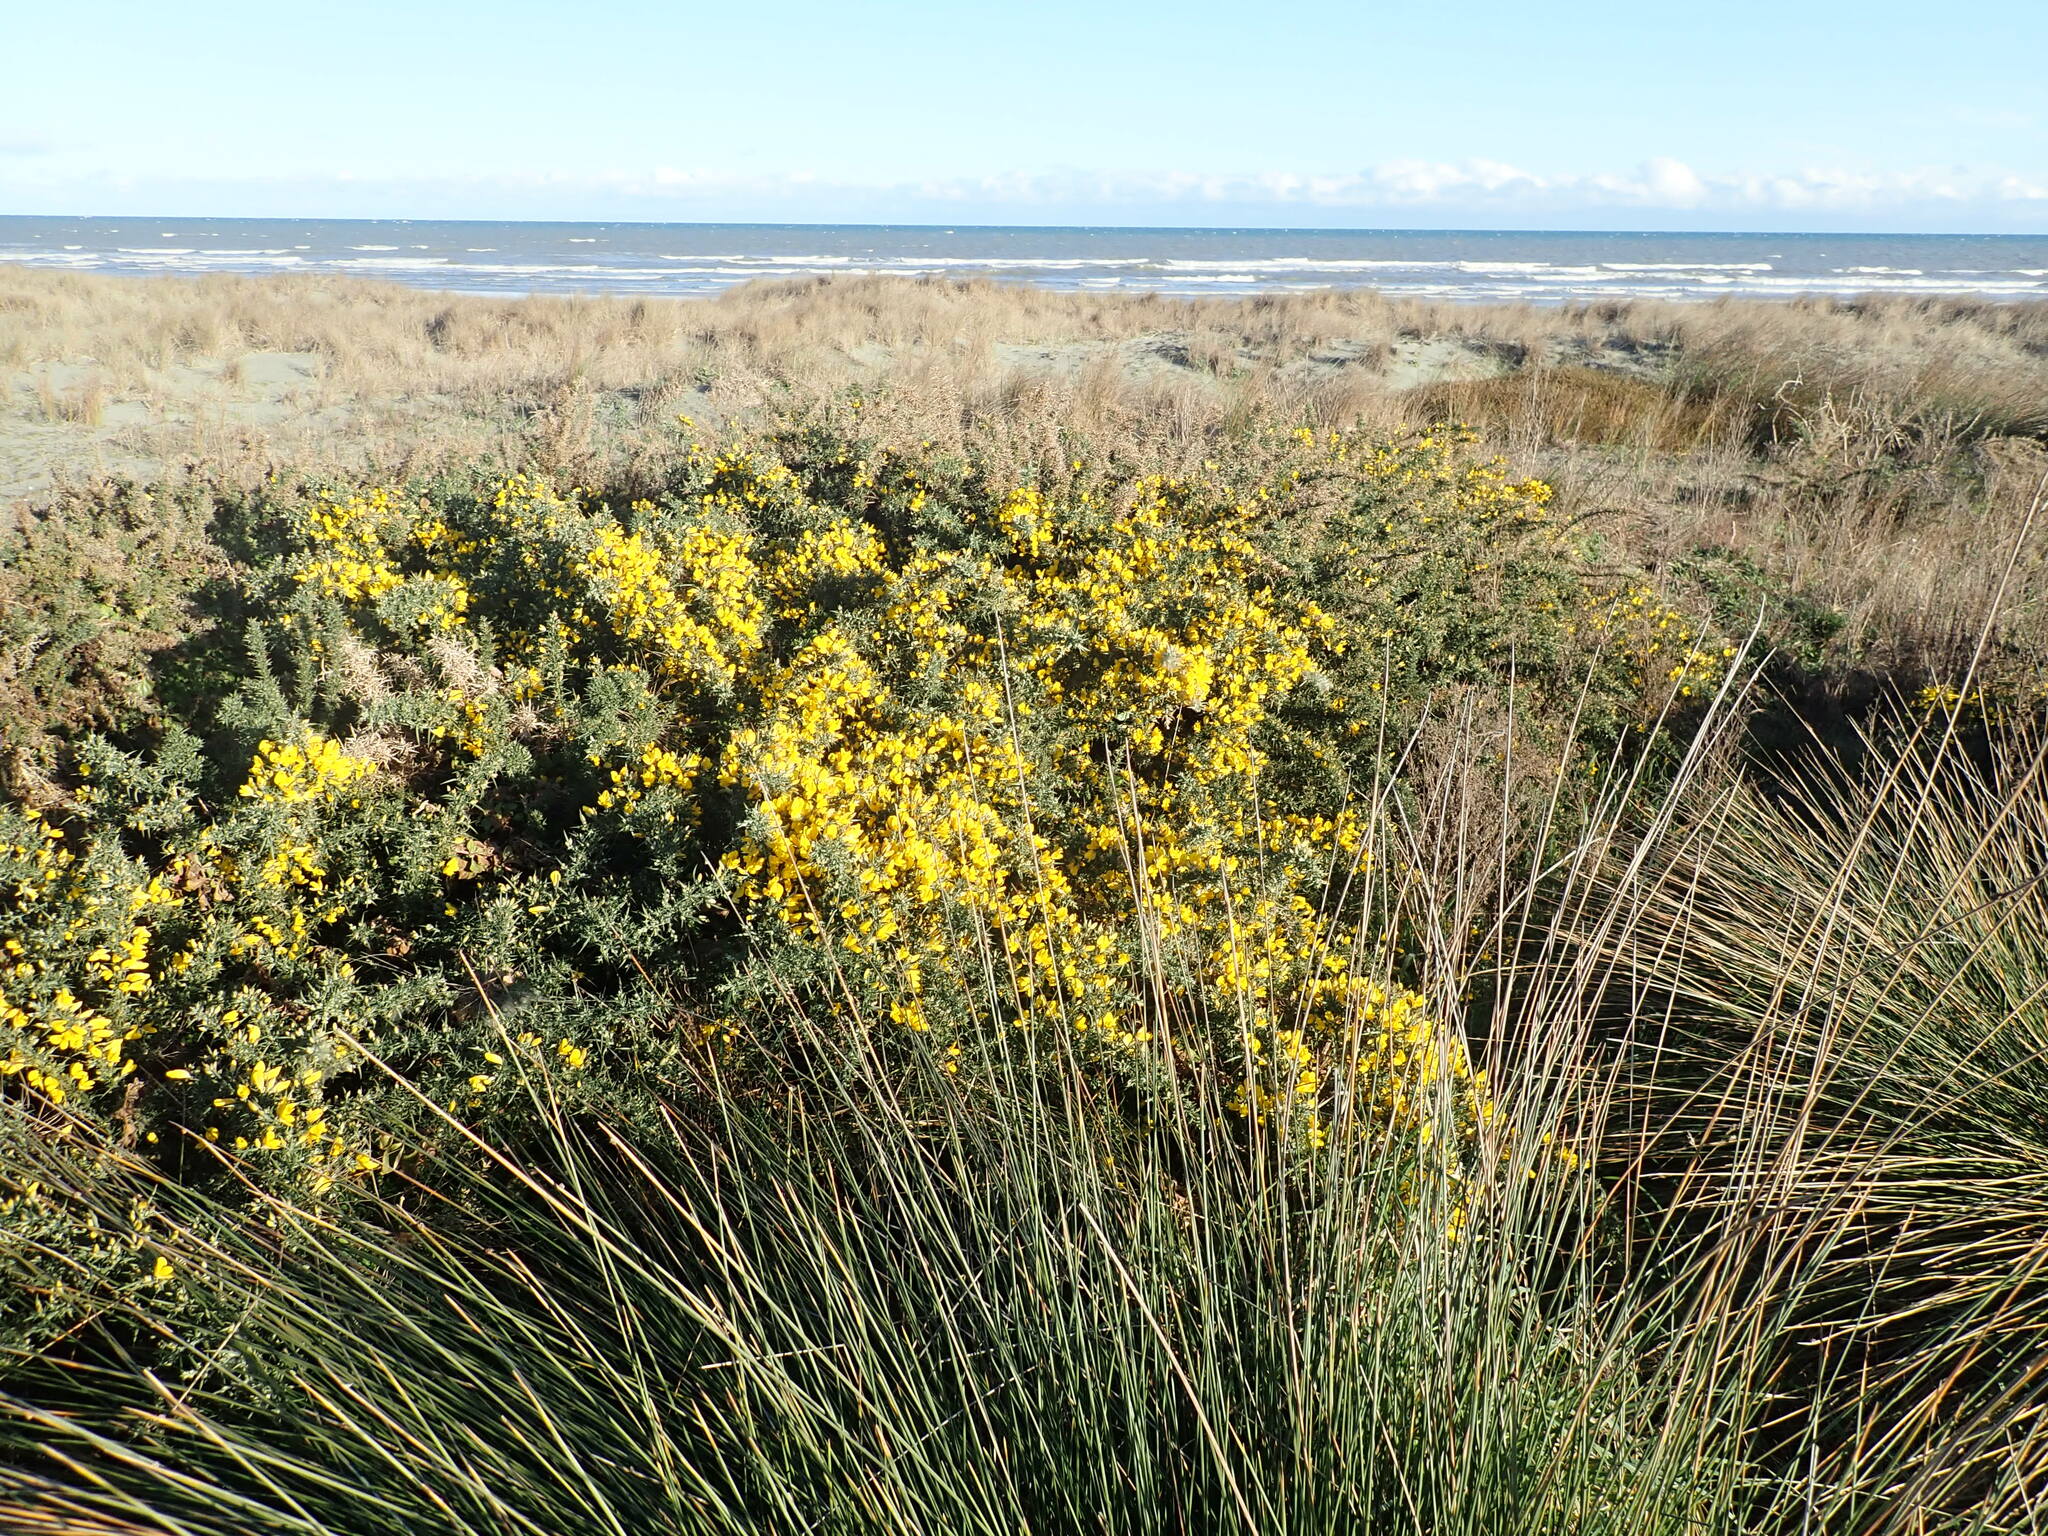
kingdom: Plantae
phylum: Tracheophyta
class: Magnoliopsida
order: Fabales
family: Fabaceae
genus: Ulex
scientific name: Ulex europaeus
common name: Common gorse
